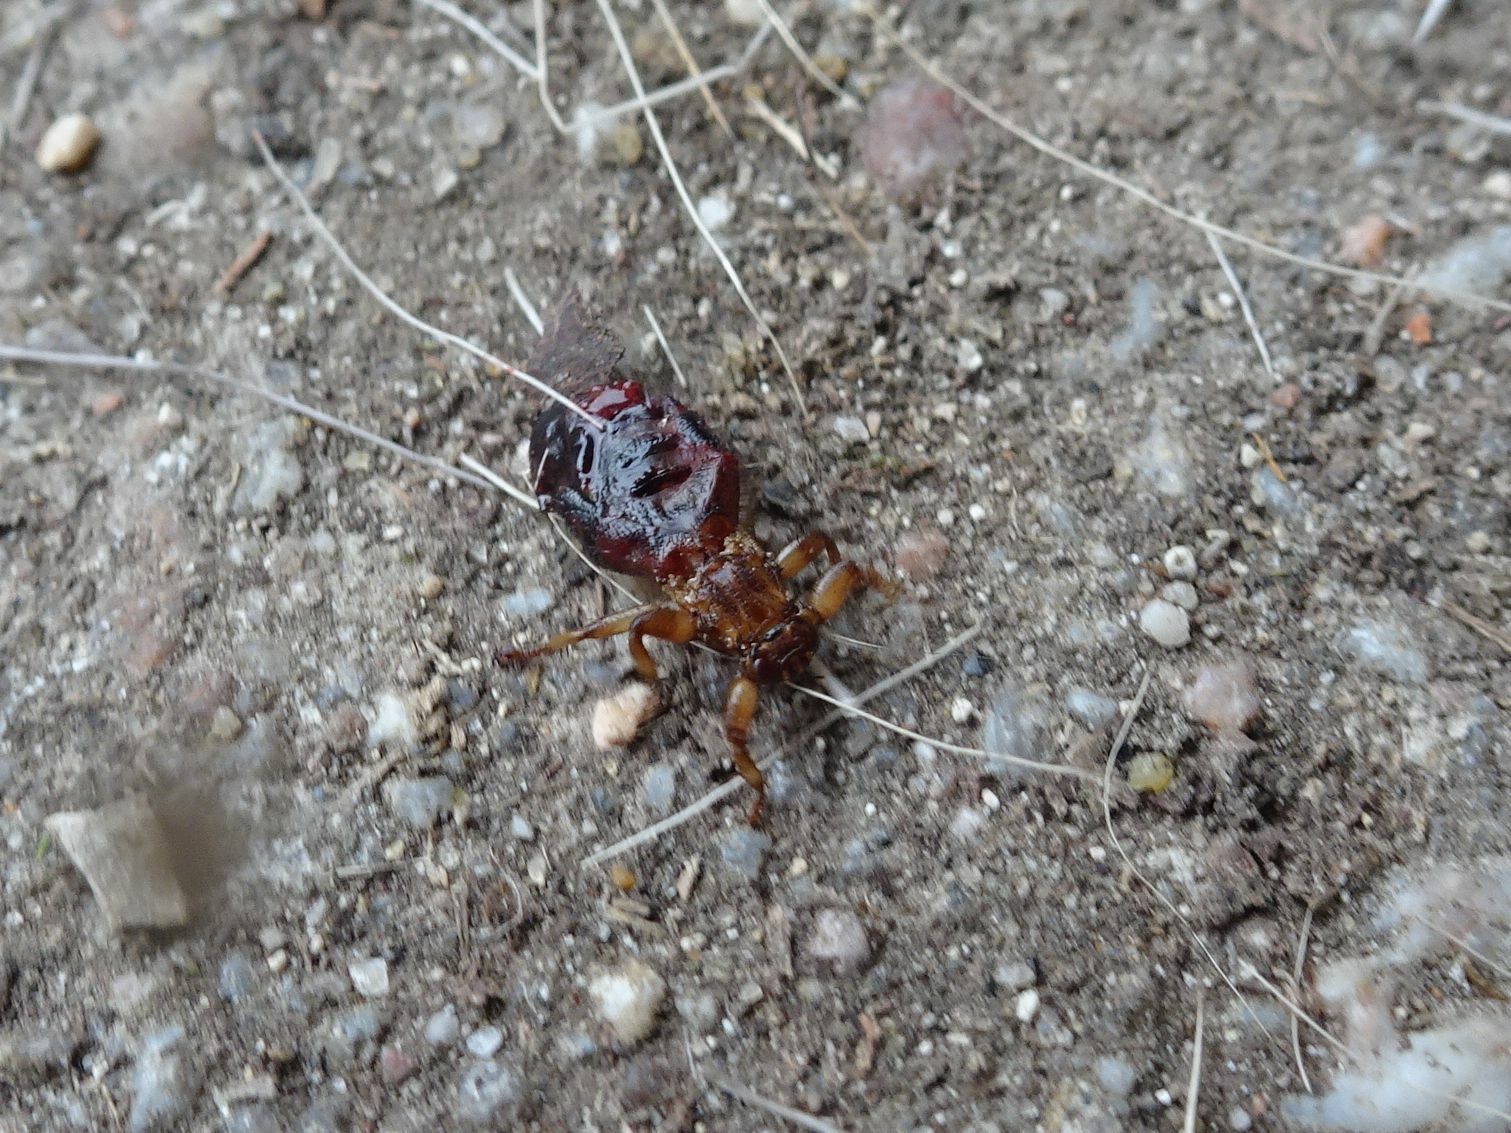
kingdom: Animalia
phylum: Arthropoda
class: Insecta
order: Diptera
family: Hippoboscidae
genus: Lipoptena
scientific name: Lipoptena cervi
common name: Deer ked
